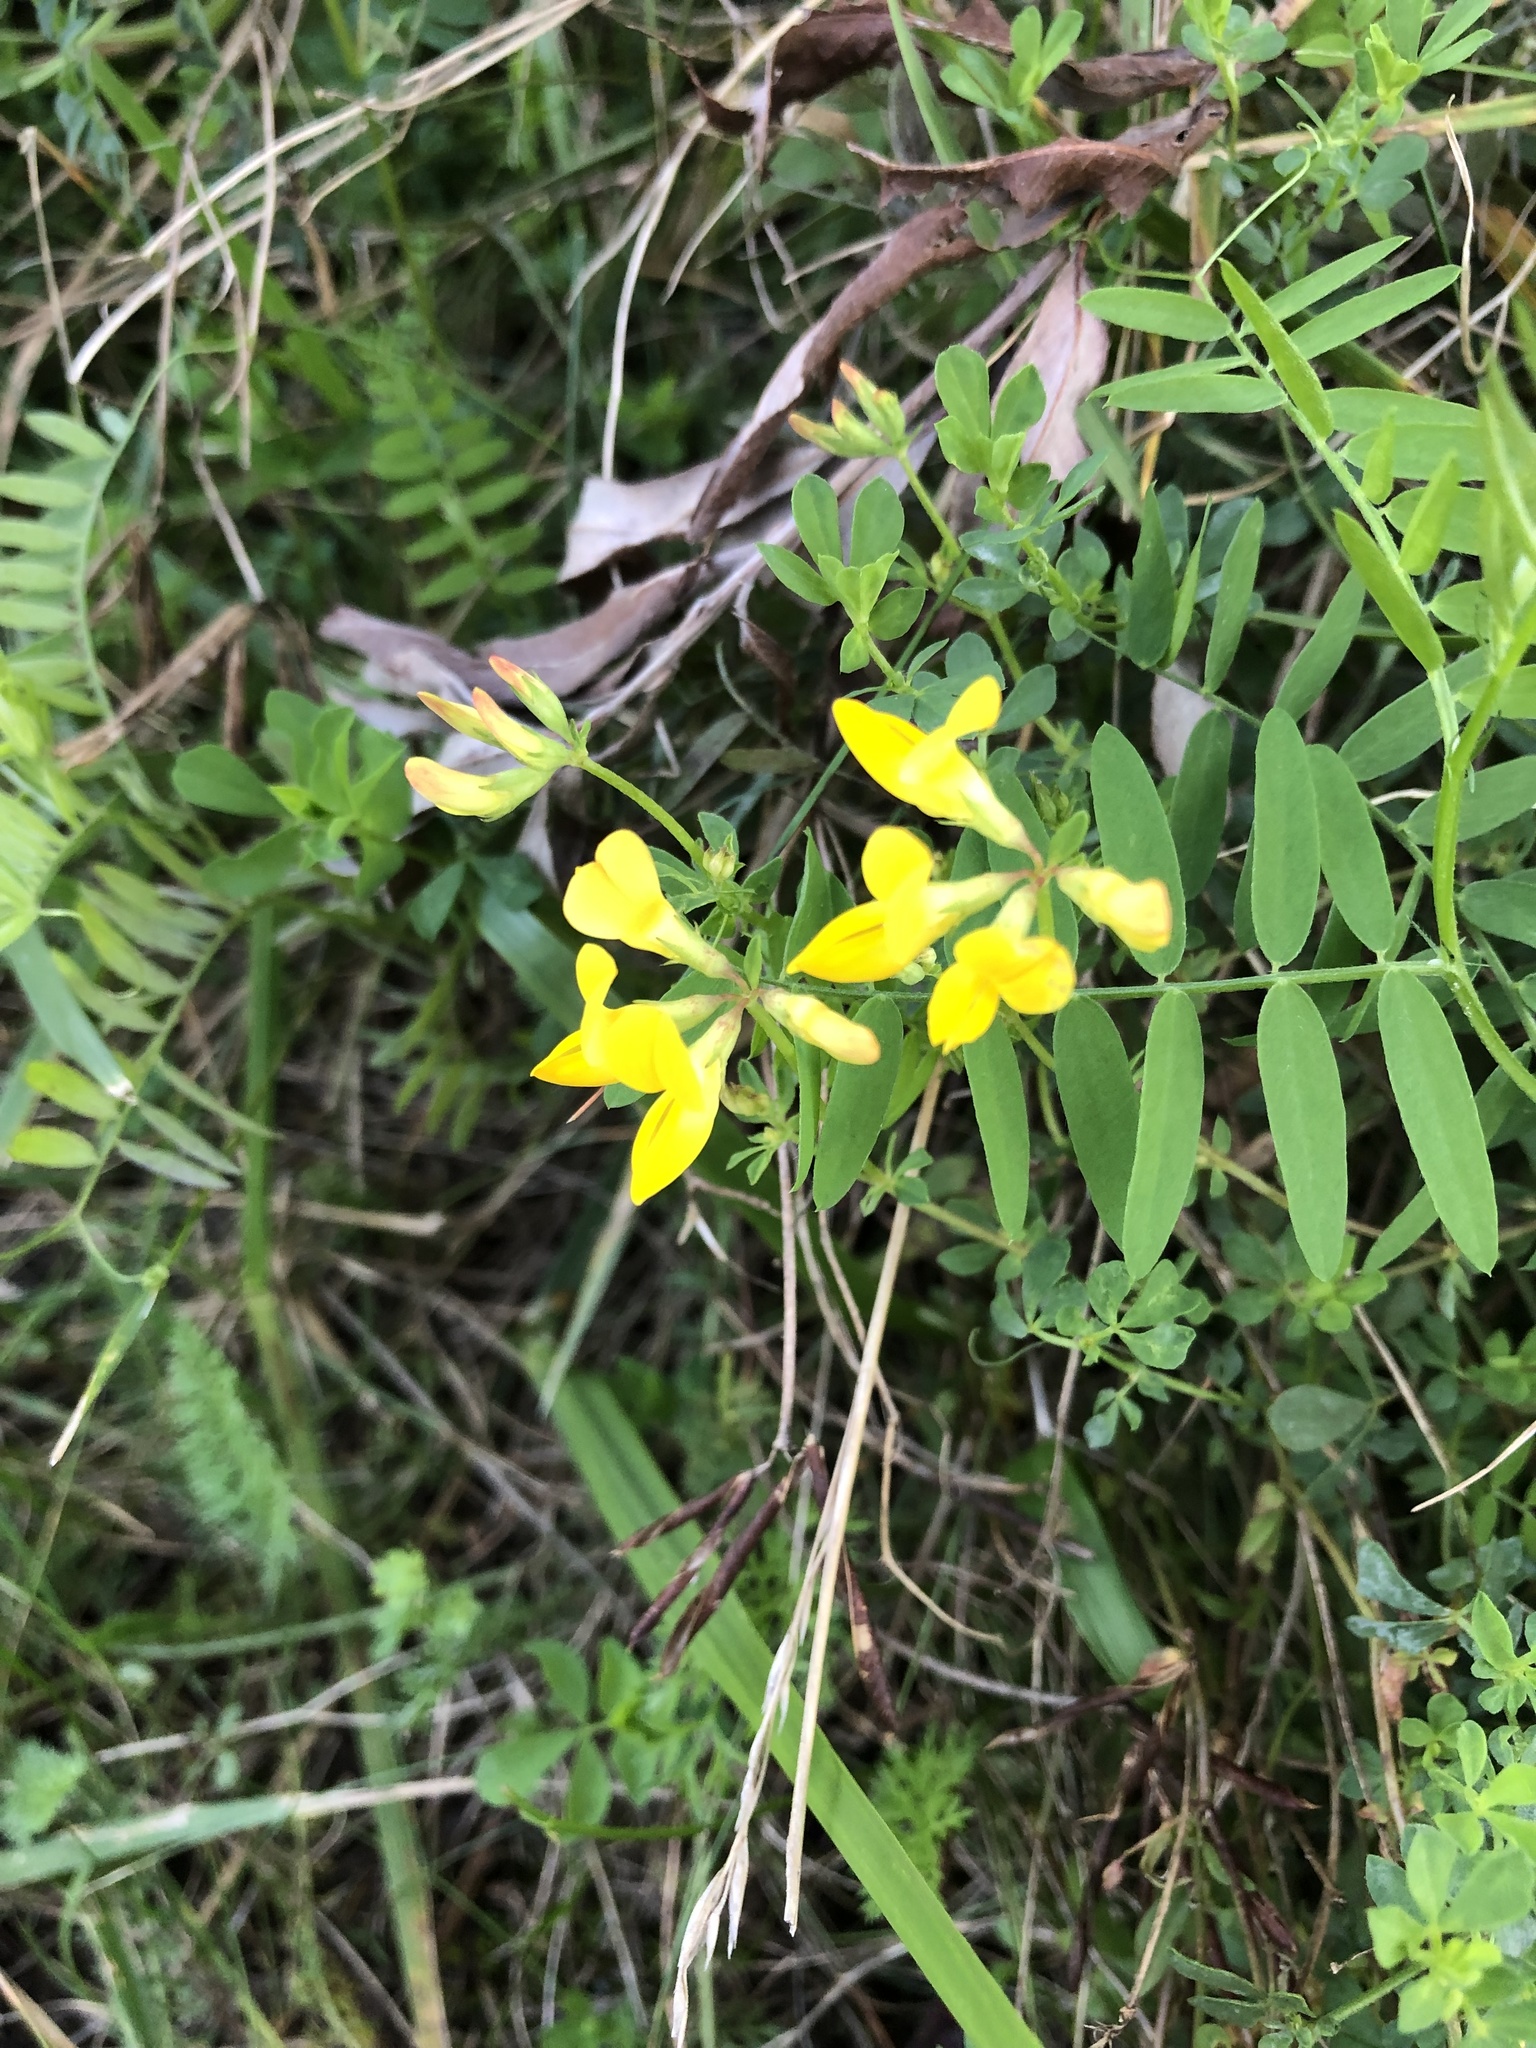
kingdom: Plantae
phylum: Tracheophyta
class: Magnoliopsida
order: Fabales
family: Fabaceae
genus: Lotus
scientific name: Lotus corniculatus
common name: Common bird's-foot-trefoil
